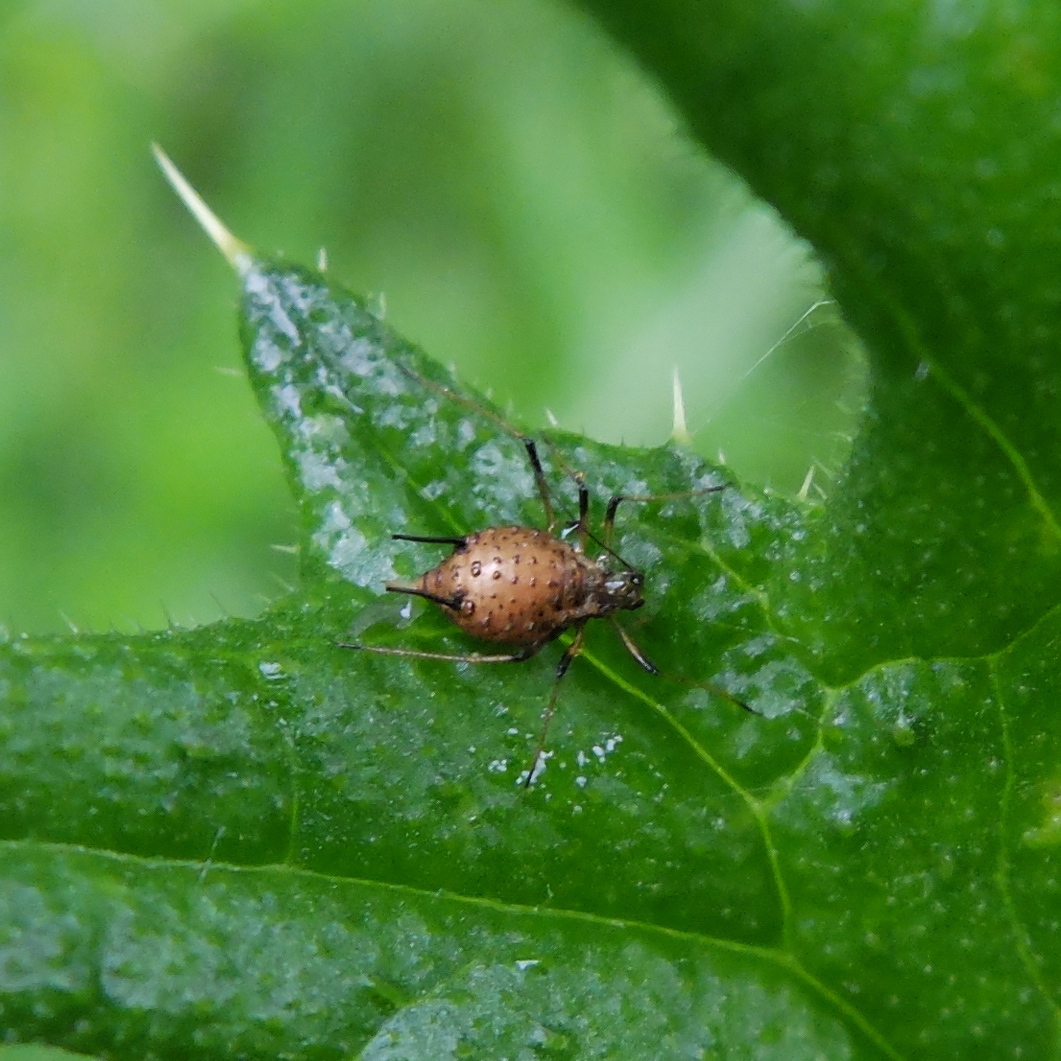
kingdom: Animalia
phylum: Arthropoda
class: Insecta
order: Hemiptera
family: Aphididae
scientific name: Aphididae
